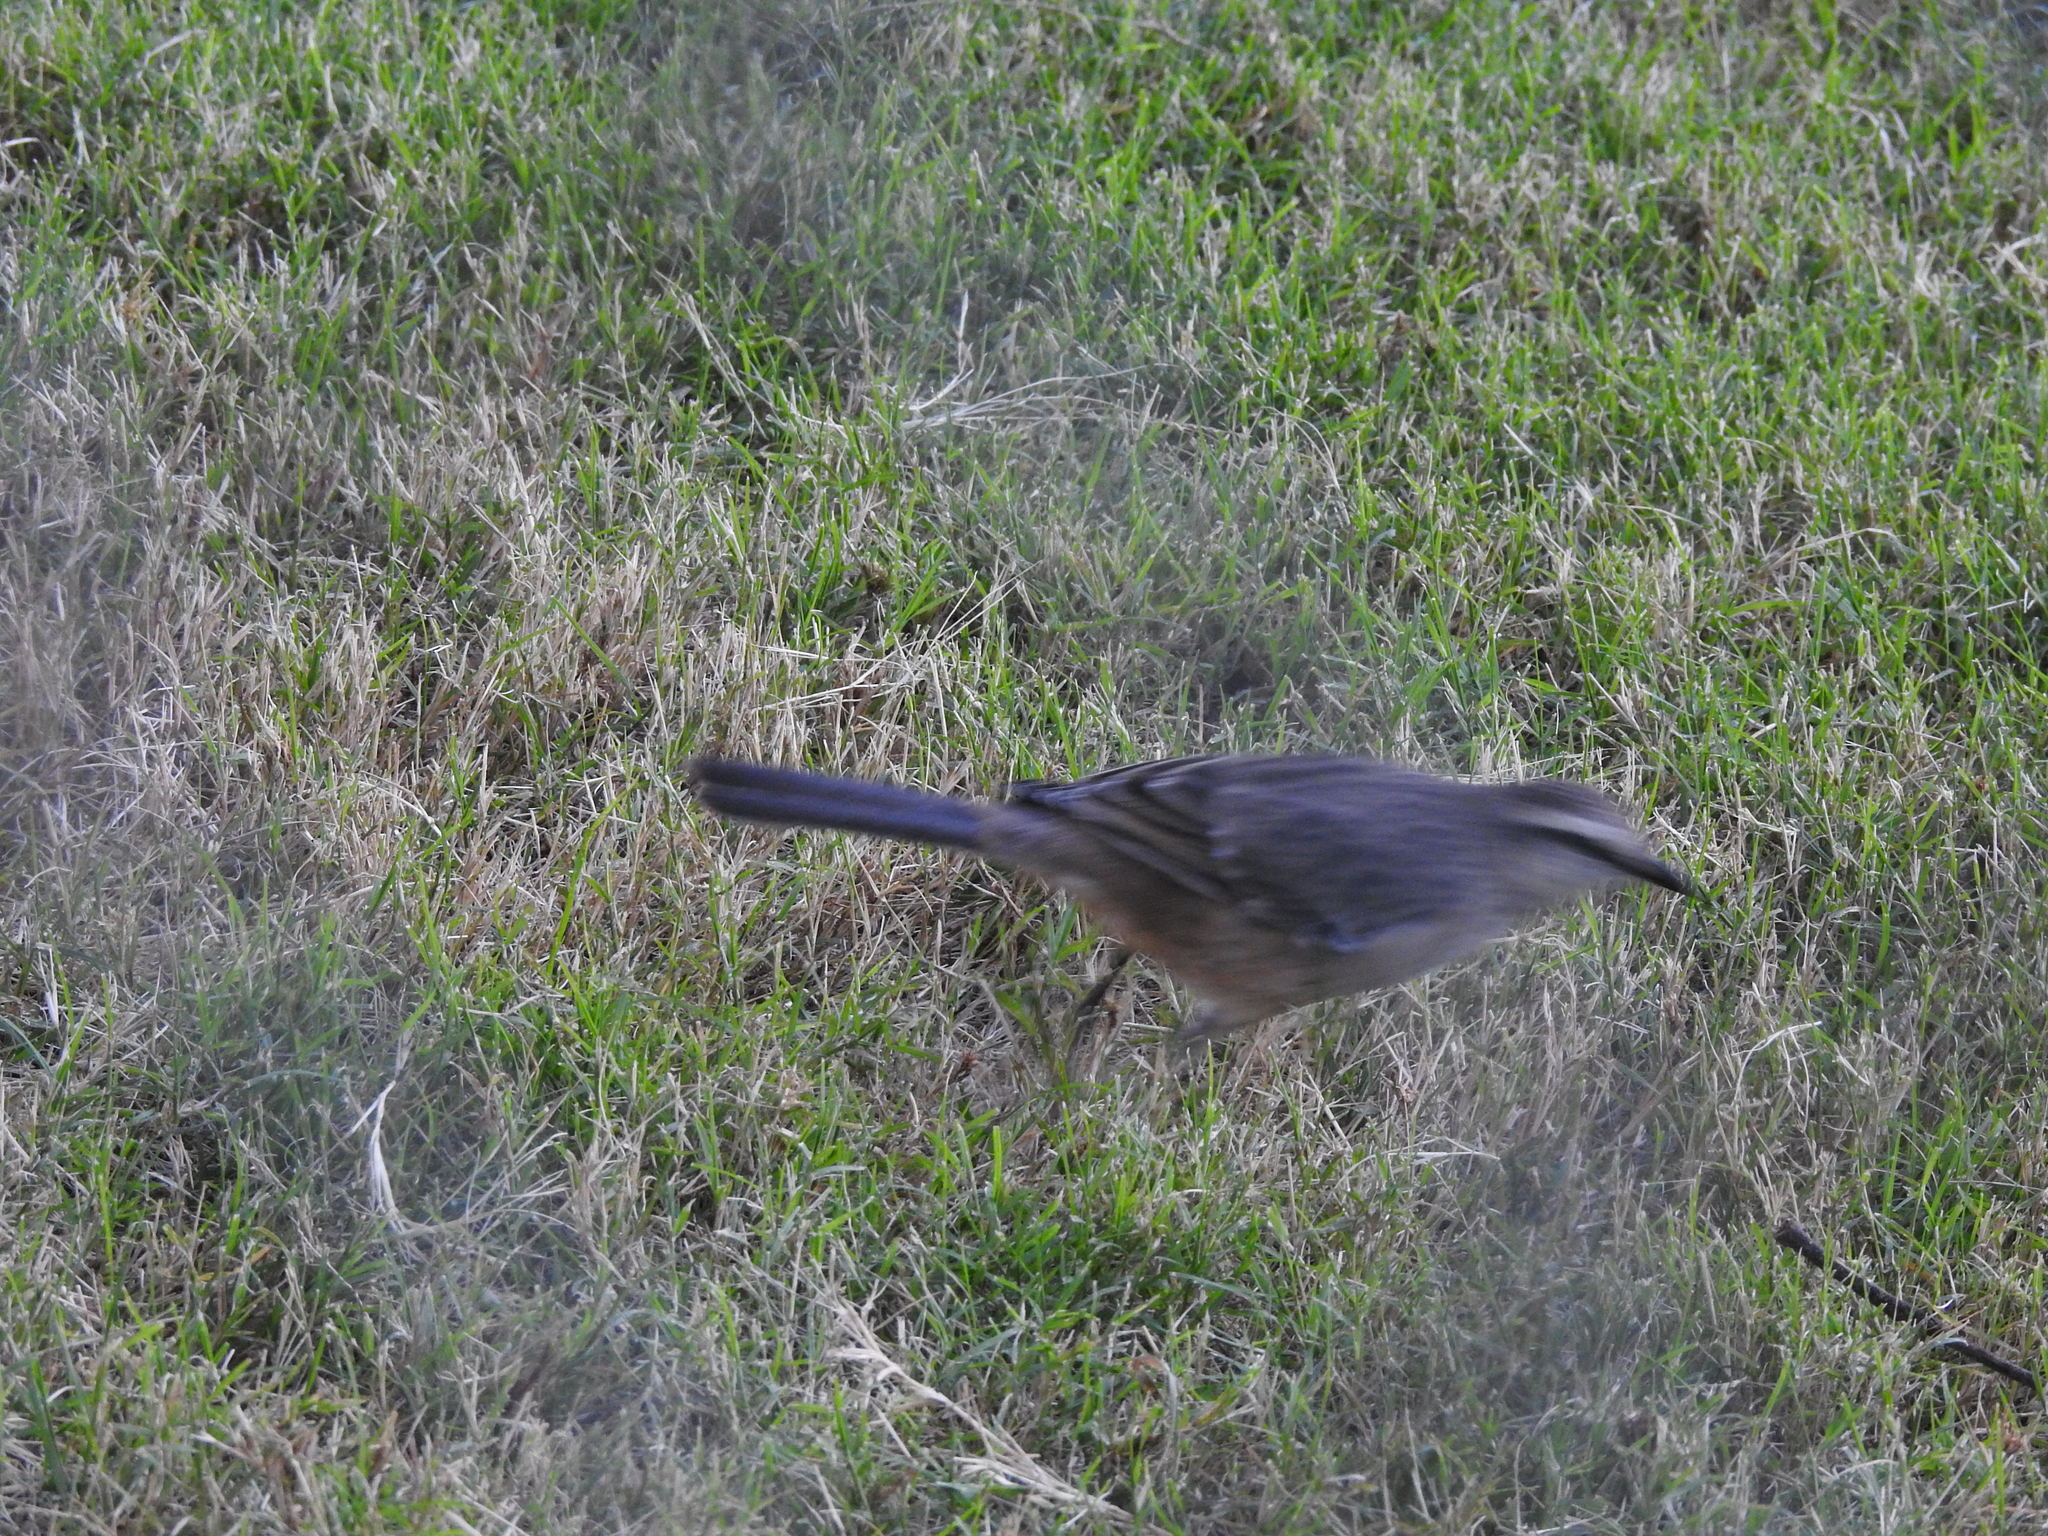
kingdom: Animalia
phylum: Chordata
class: Aves
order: Passeriformes
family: Mimidae
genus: Mimus
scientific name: Mimus saturninus
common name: Chalk-browed mockingbird
